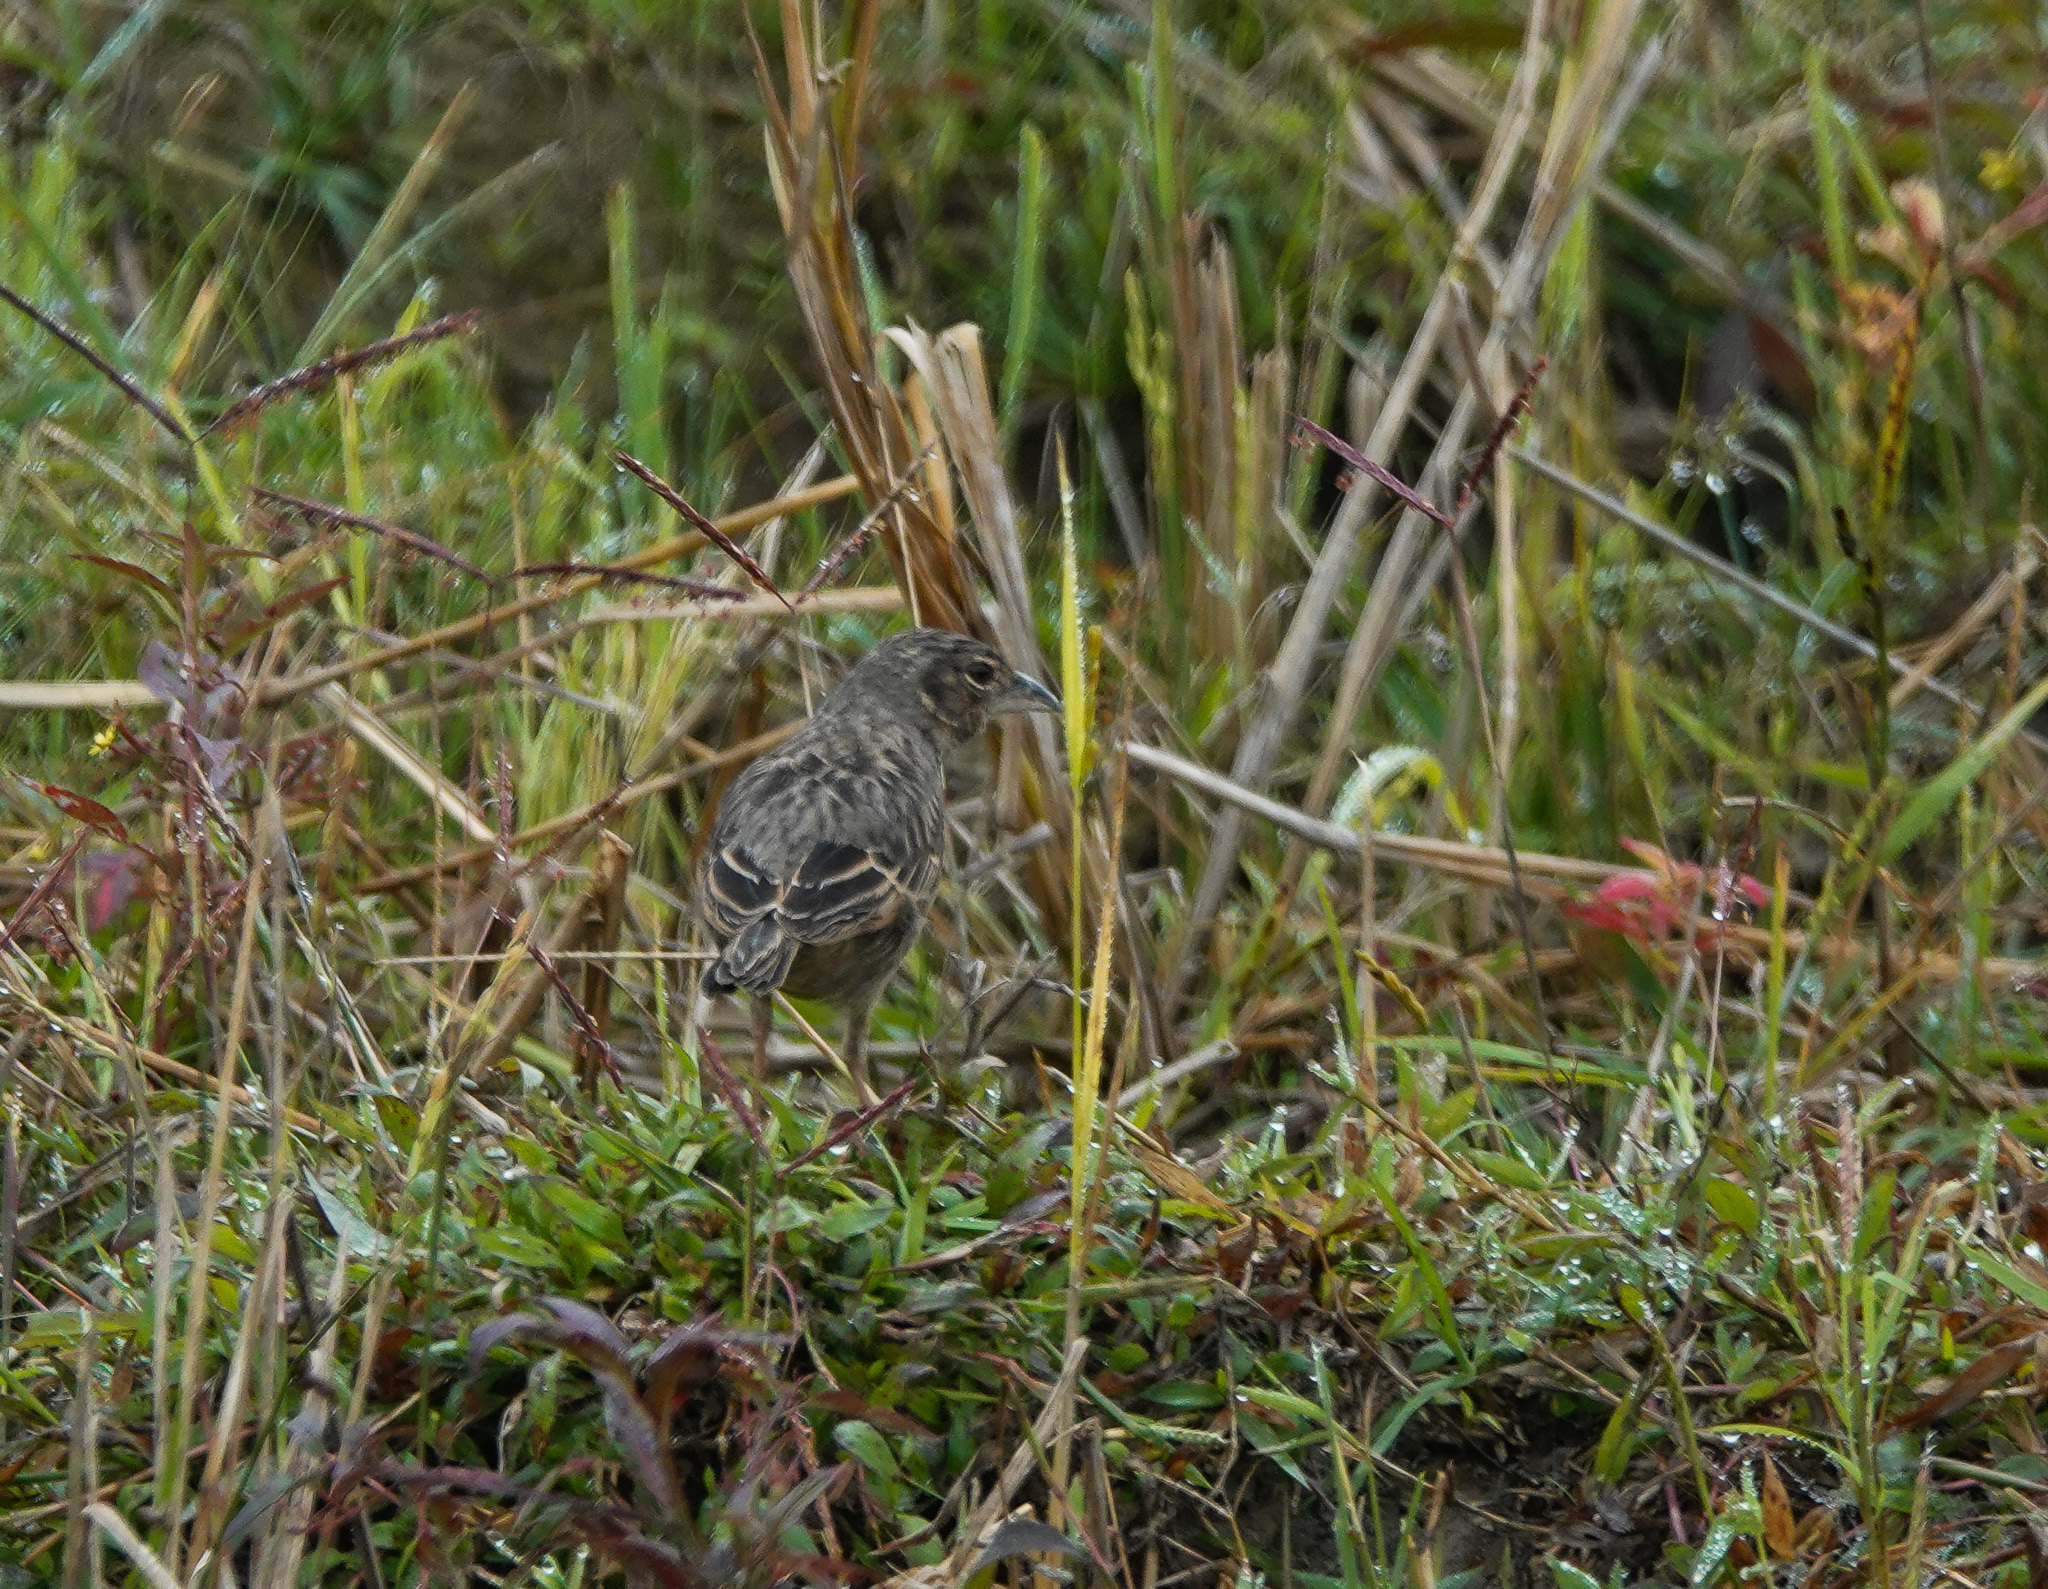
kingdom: Animalia
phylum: Chordata
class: Aves
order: Passeriformes
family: Alaudidae
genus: Mirafra
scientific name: Mirafra assamica
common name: Bengal bush lark
